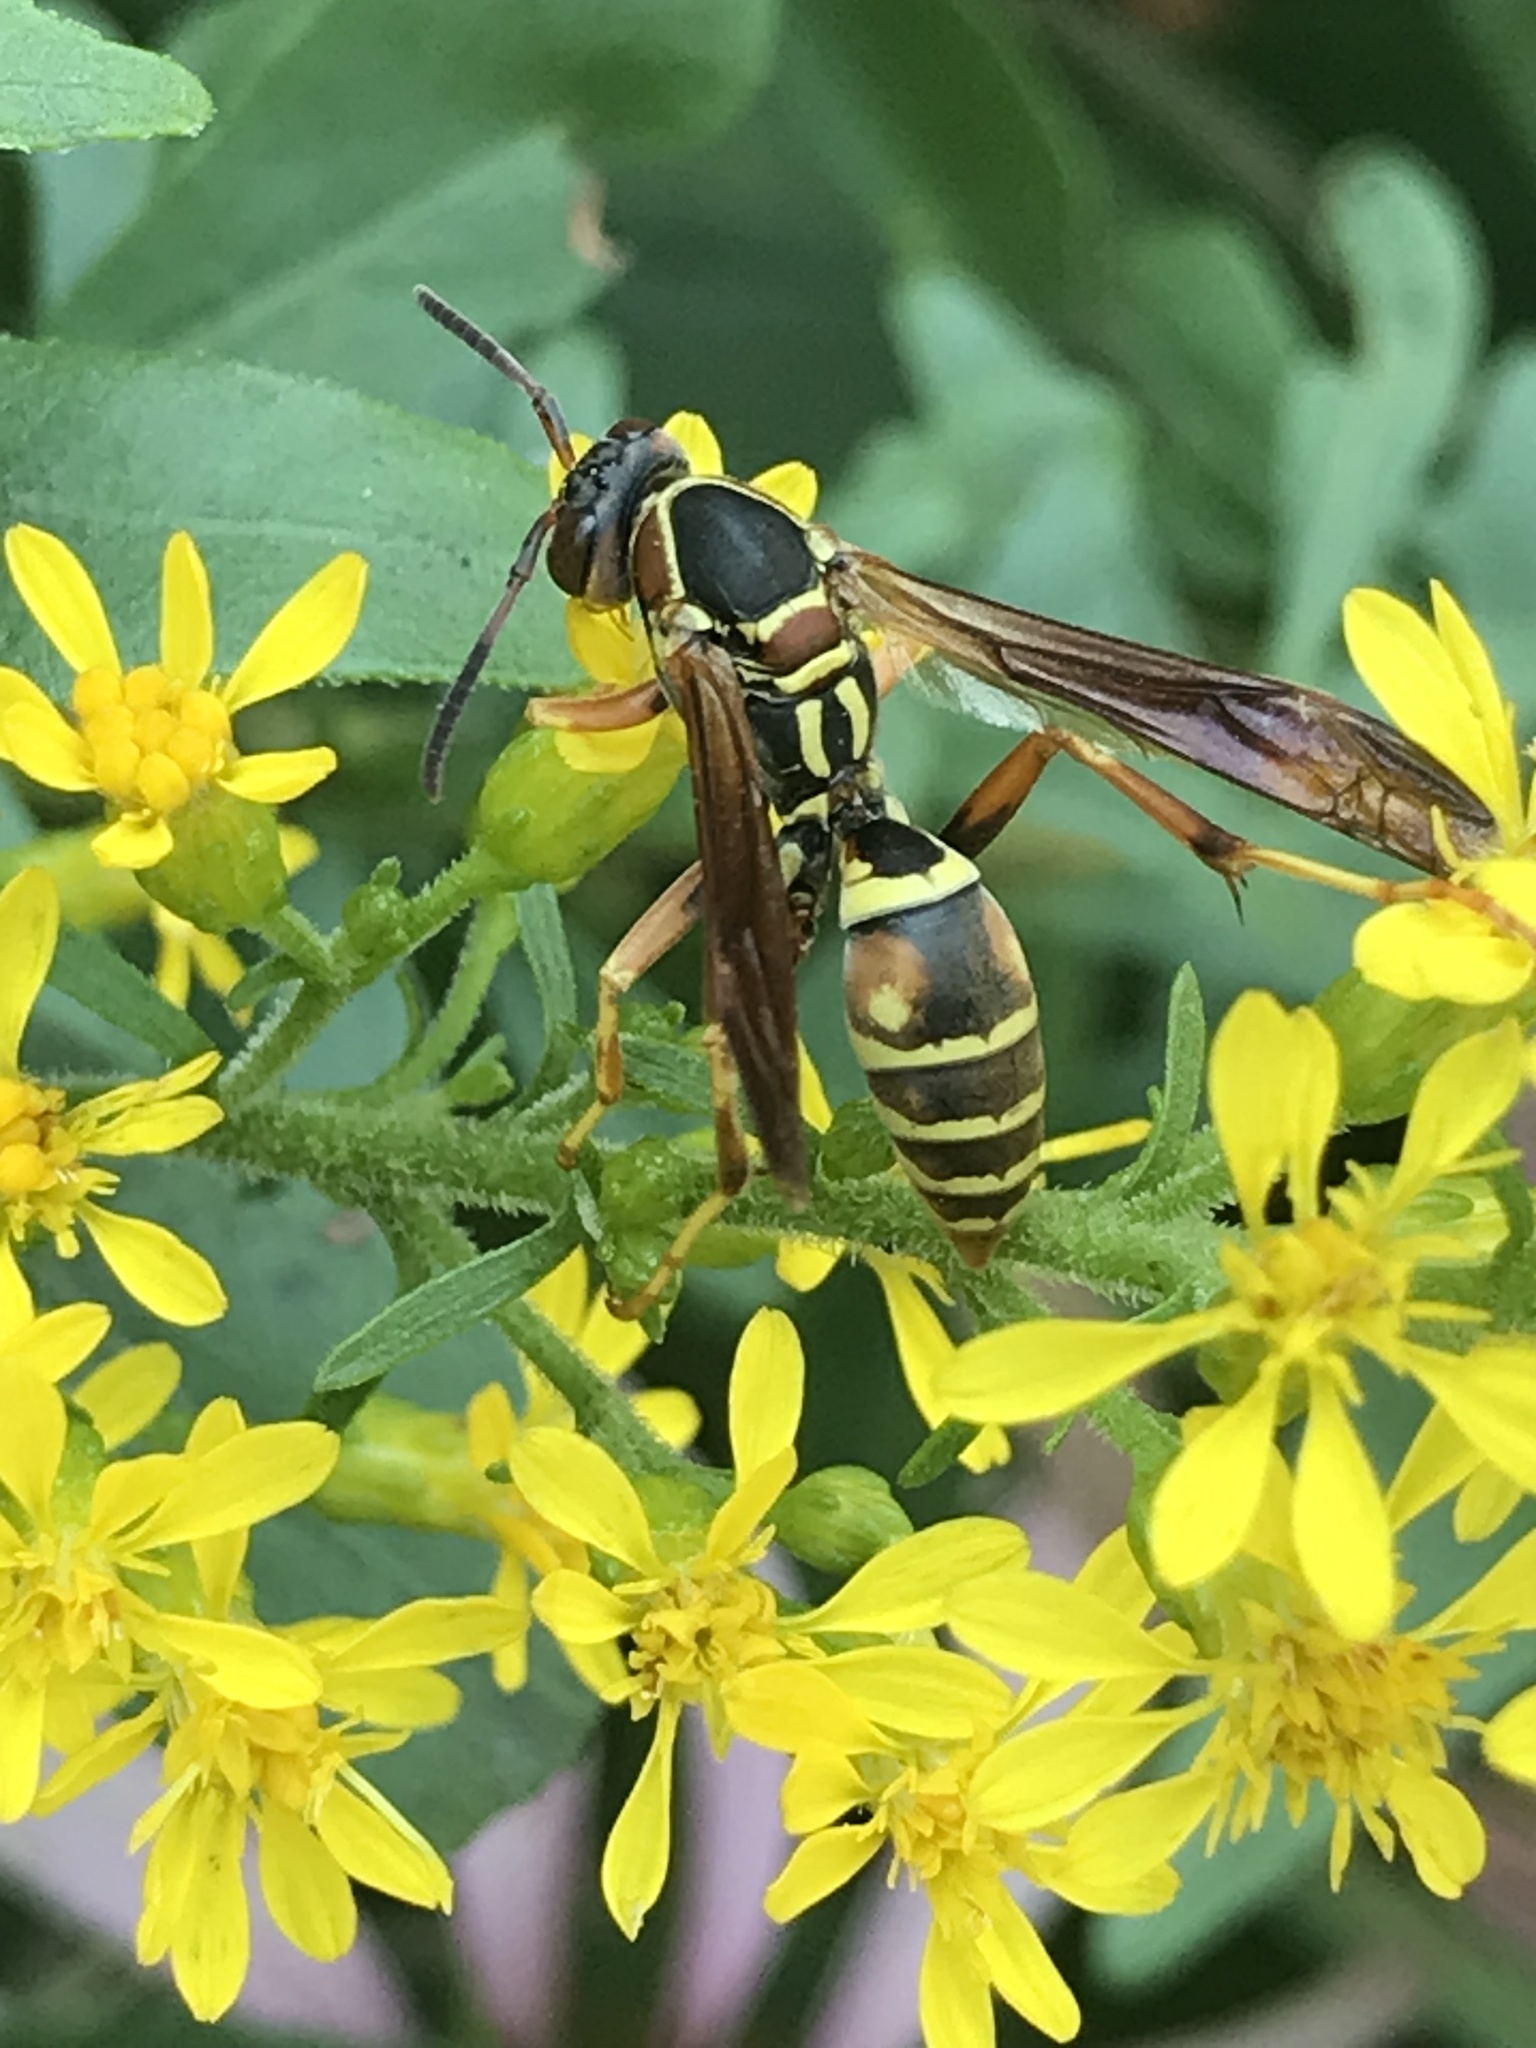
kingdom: Animalia
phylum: Arthropoda
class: Insecta
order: Hymenoptera
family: Eumenidae
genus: Polistes
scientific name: Polistes fuscatus
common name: Dark paper wasp
